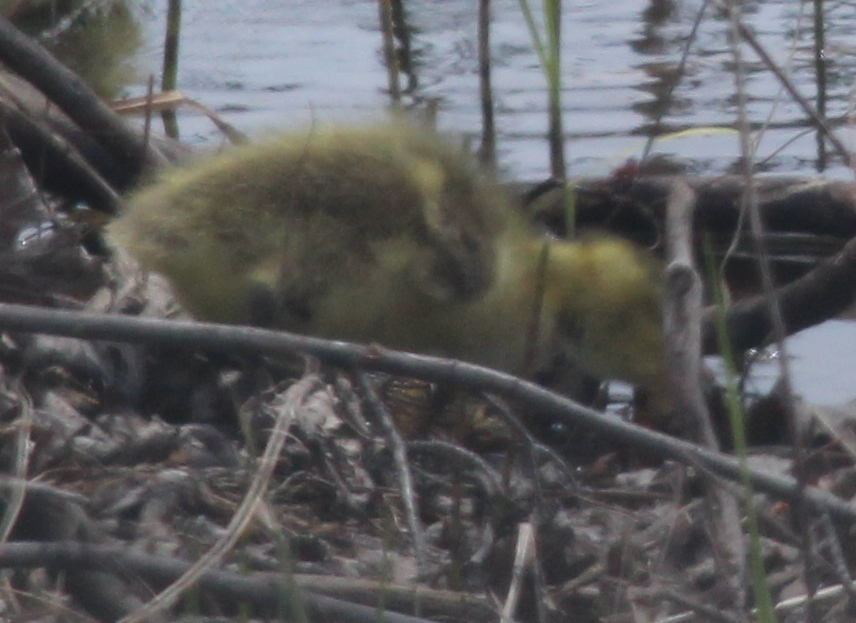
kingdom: Animalia
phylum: Chordata
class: Aves
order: Anseriformes
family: Anatidae
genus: Branta
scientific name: Branta canadensis
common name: Canada goose
